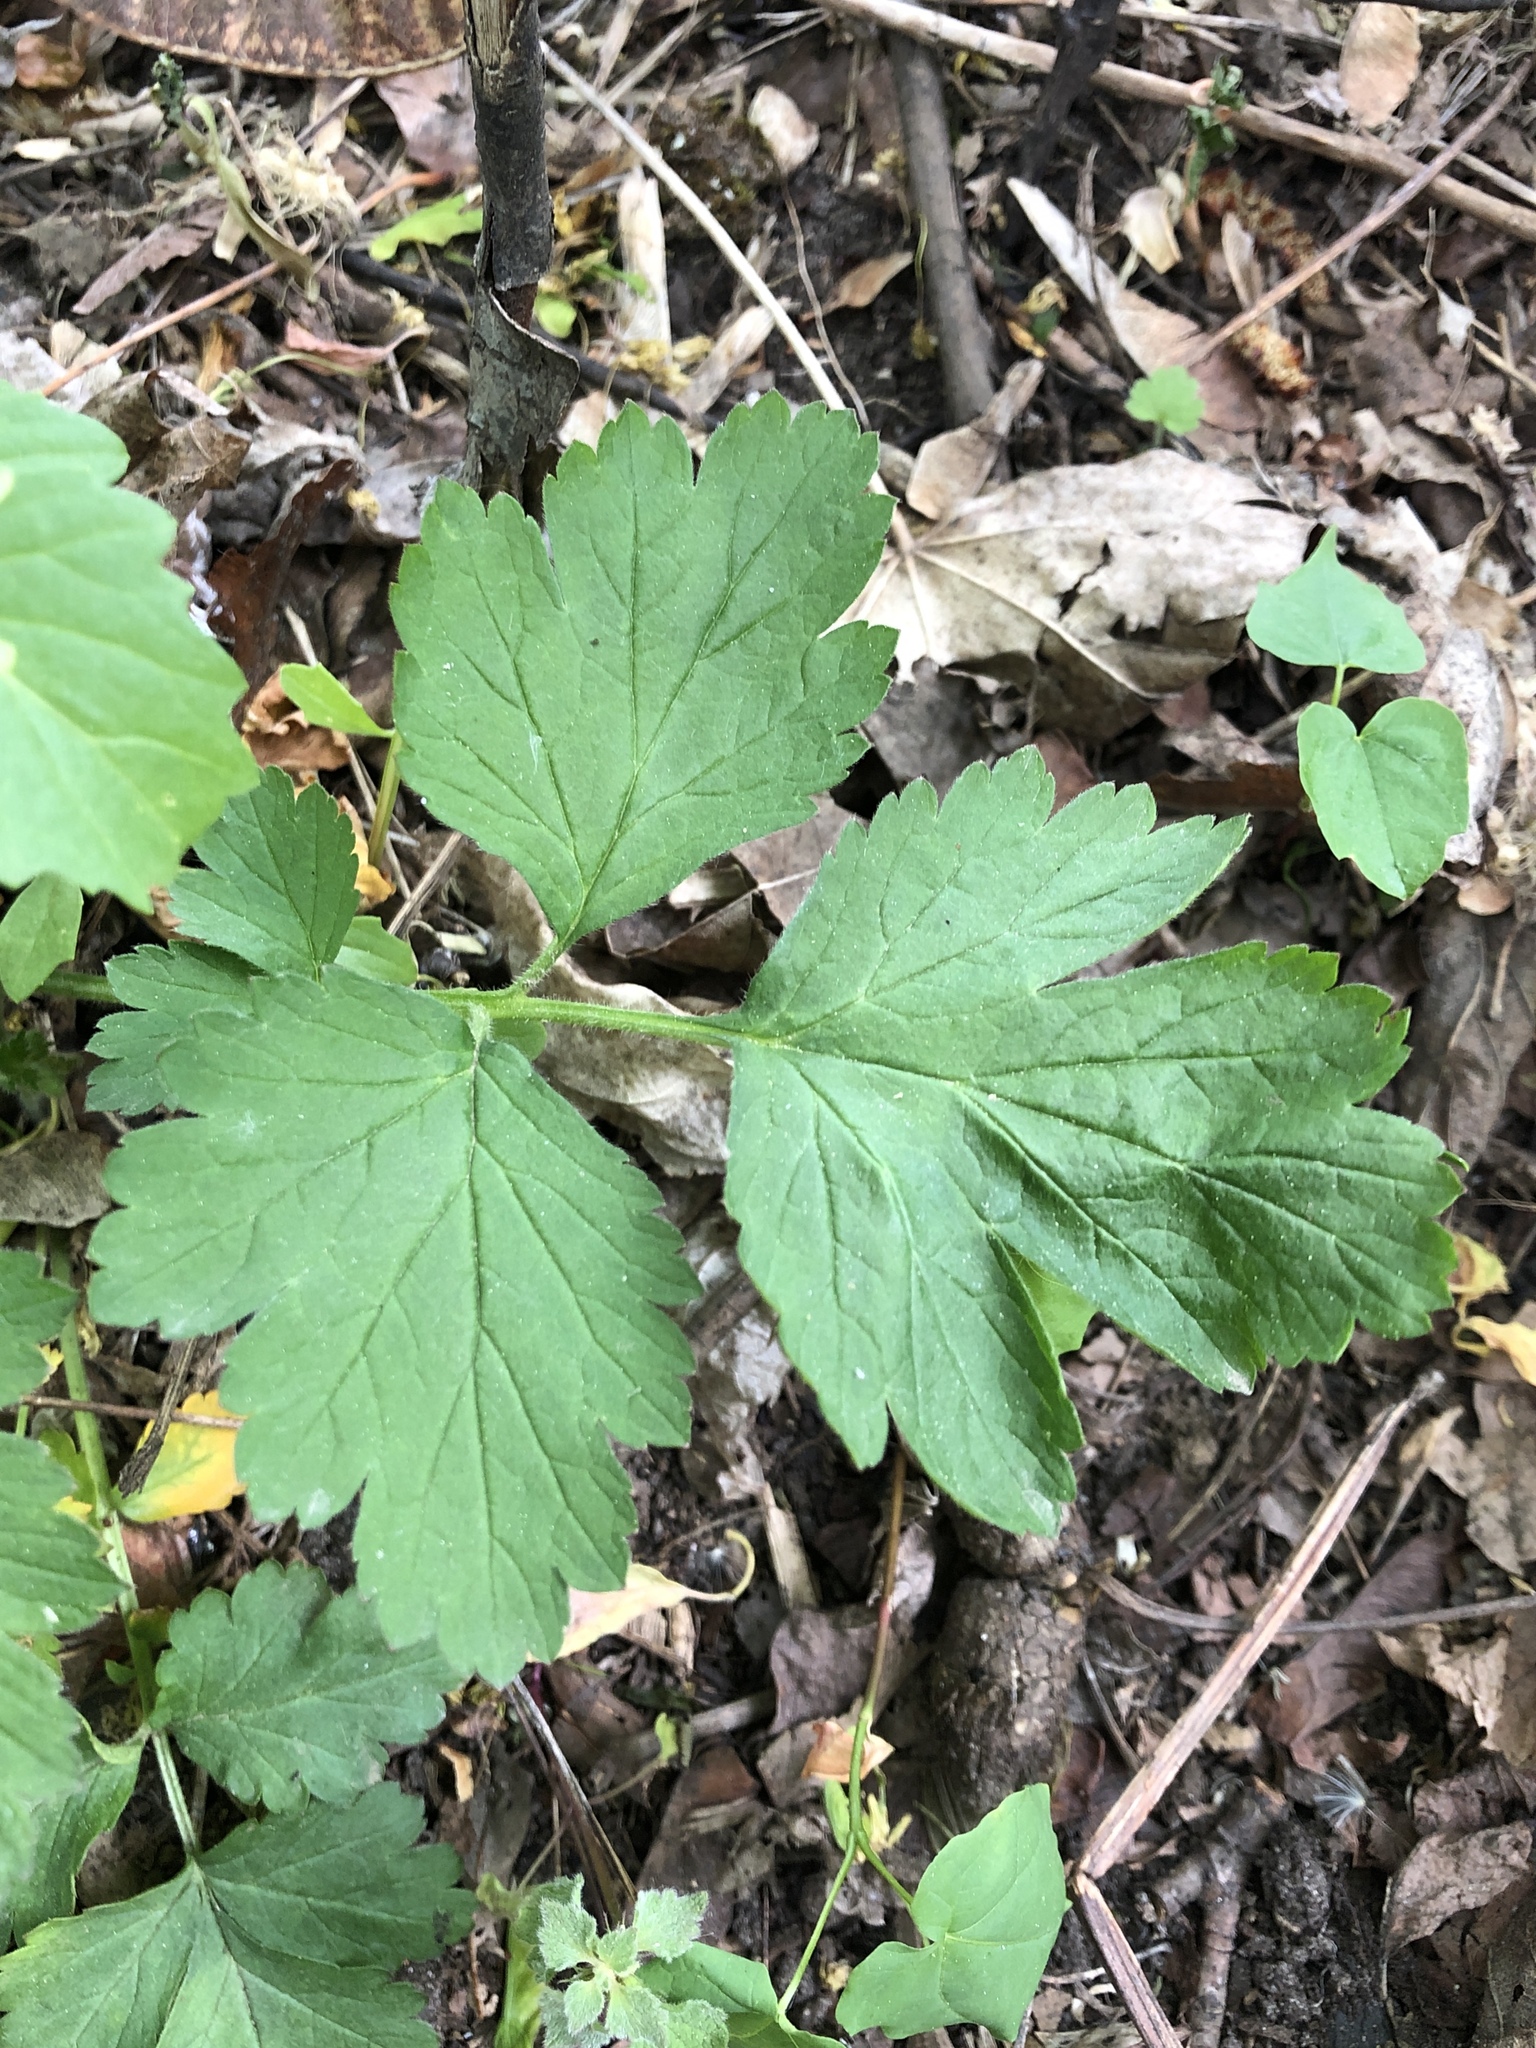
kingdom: Plantae
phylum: Tracheophyta
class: Magnoliopsida
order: Brassicales
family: Brassicaceae
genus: Eruca
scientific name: Eruca vesicaria
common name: Garden rocket
